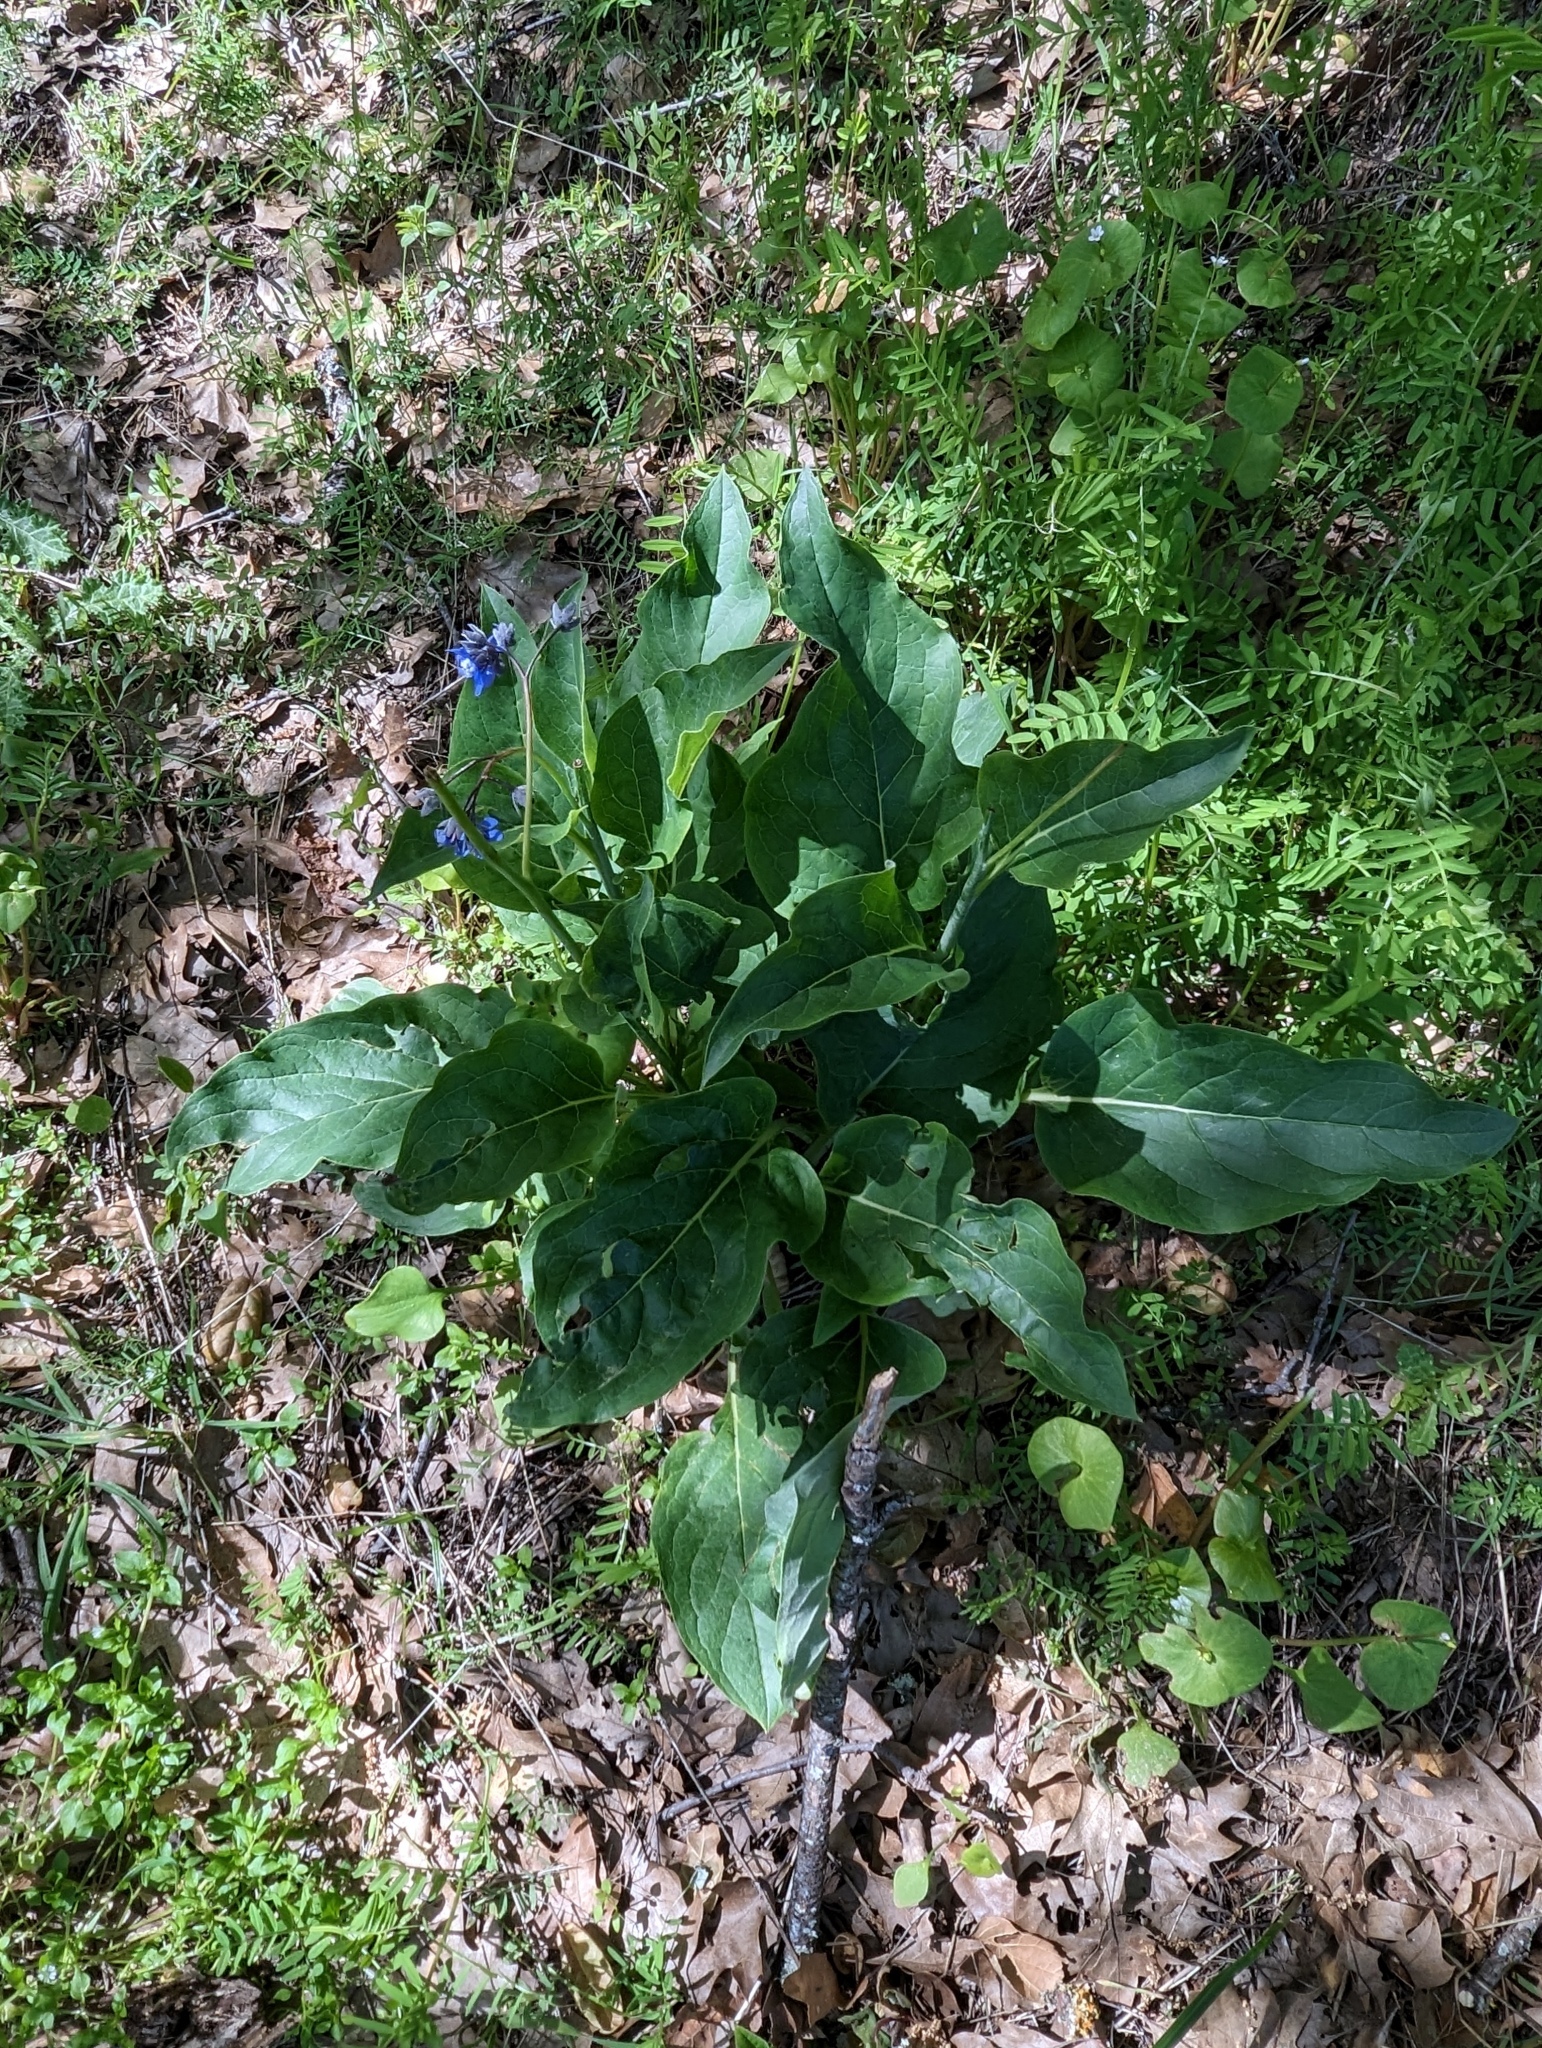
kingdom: Plantae
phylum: Tracheophyta
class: Magnoliopsida
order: Boraginales
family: Boraginaceae
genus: Adelinia
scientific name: Adelinia grande
